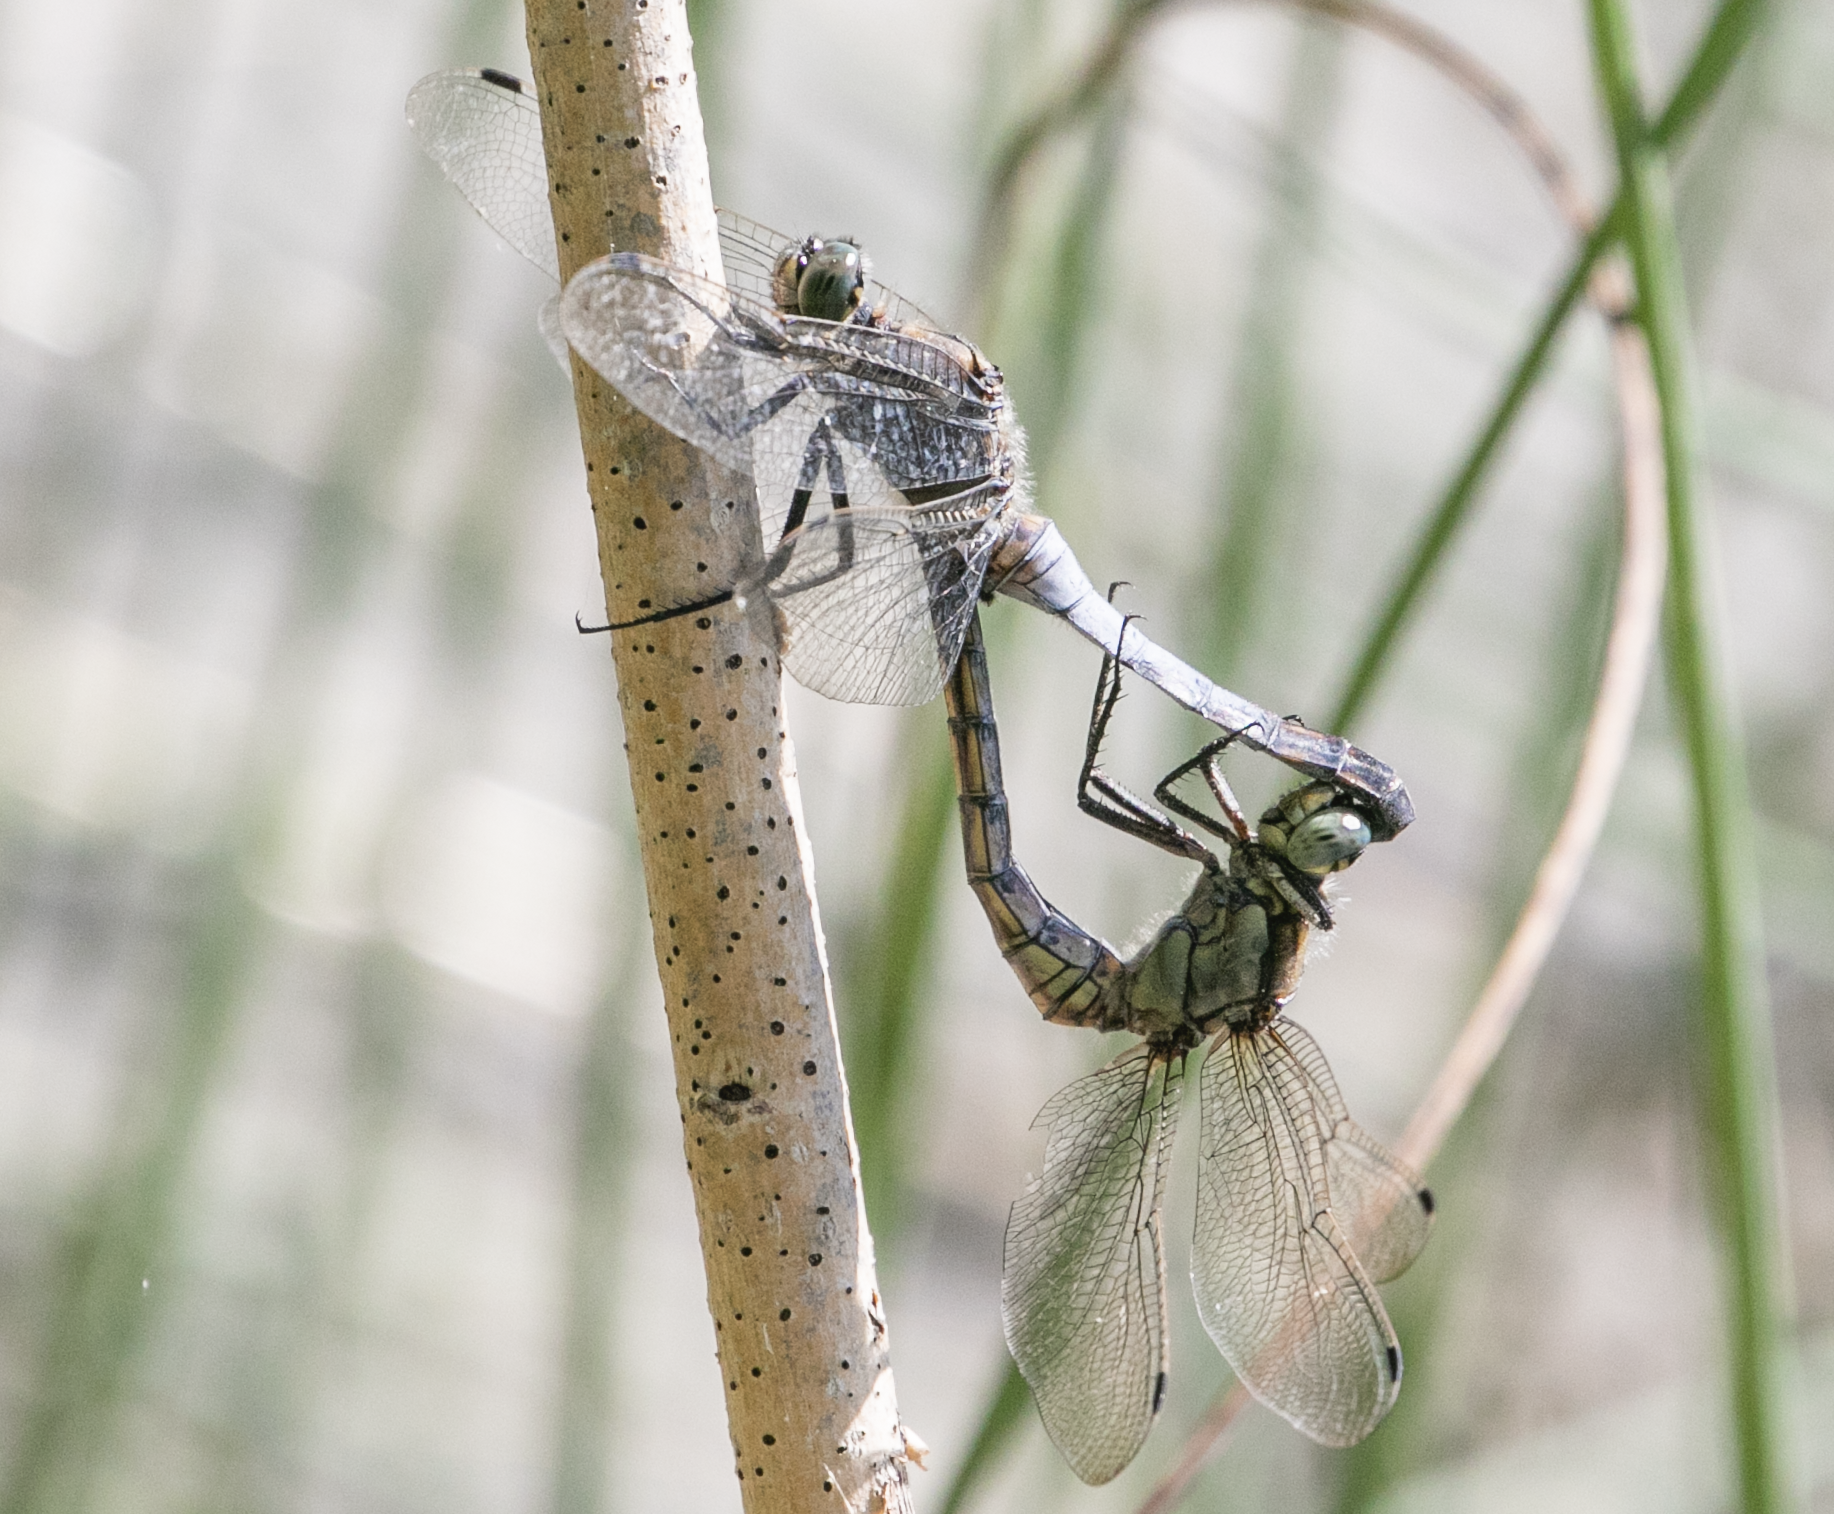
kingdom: Animalia
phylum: Arthropoda
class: Insecta
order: Odonata
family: Libellulidae
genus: Orthetrum
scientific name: Orthetrum cancellatum
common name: Black-tailed skimmer
